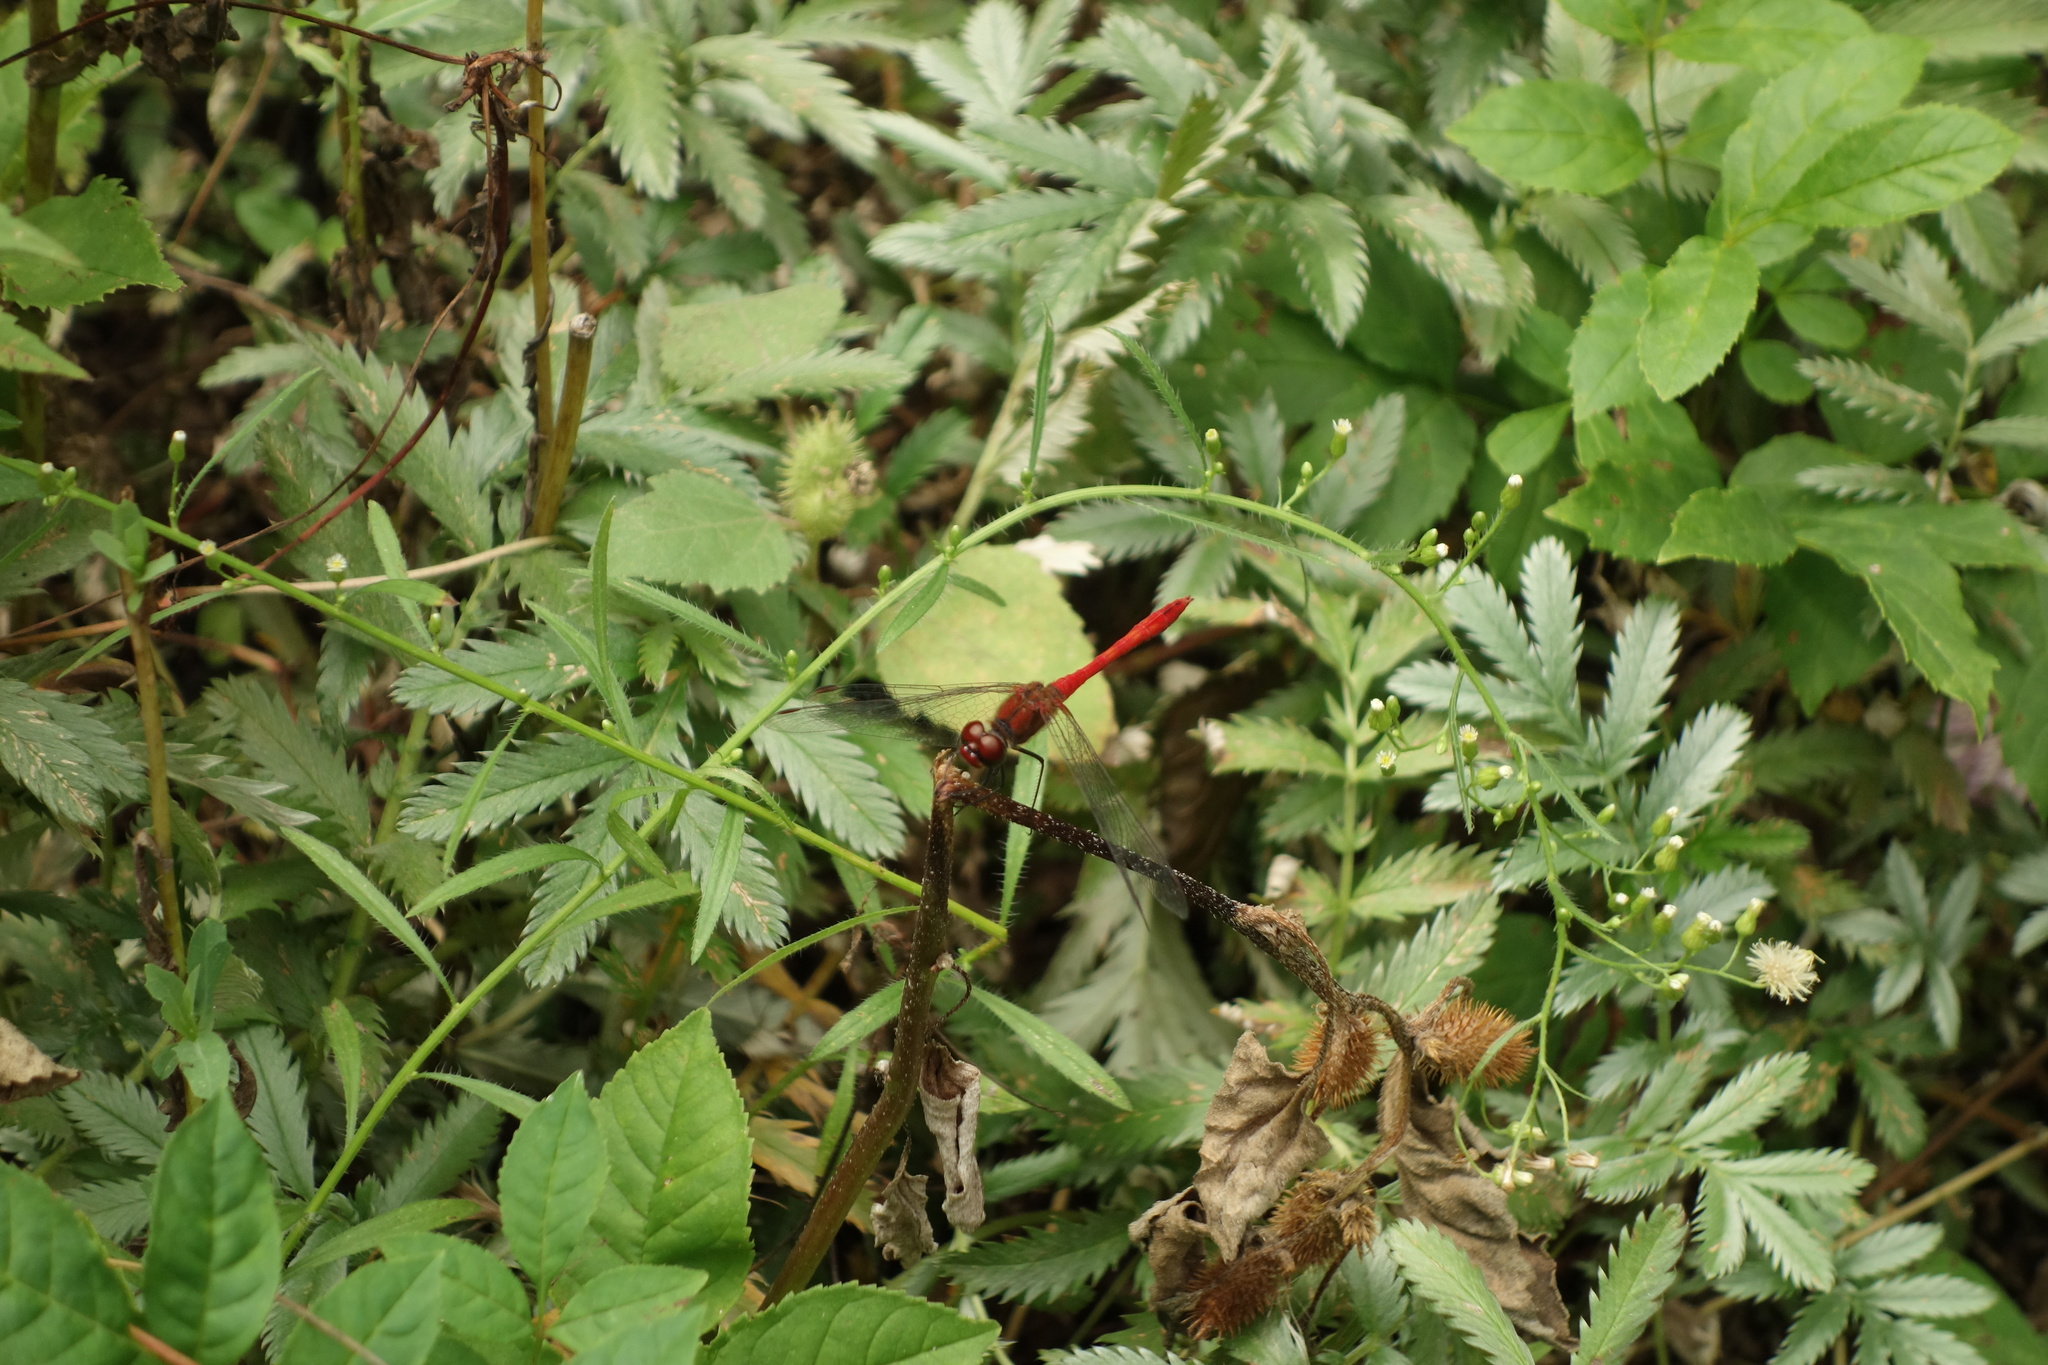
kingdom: Animalia
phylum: Arthropoda
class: Insecta
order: Odonata
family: Libellulidae
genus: Sympetrum
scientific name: Sympetrum sanguineum
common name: Ruddy darter
